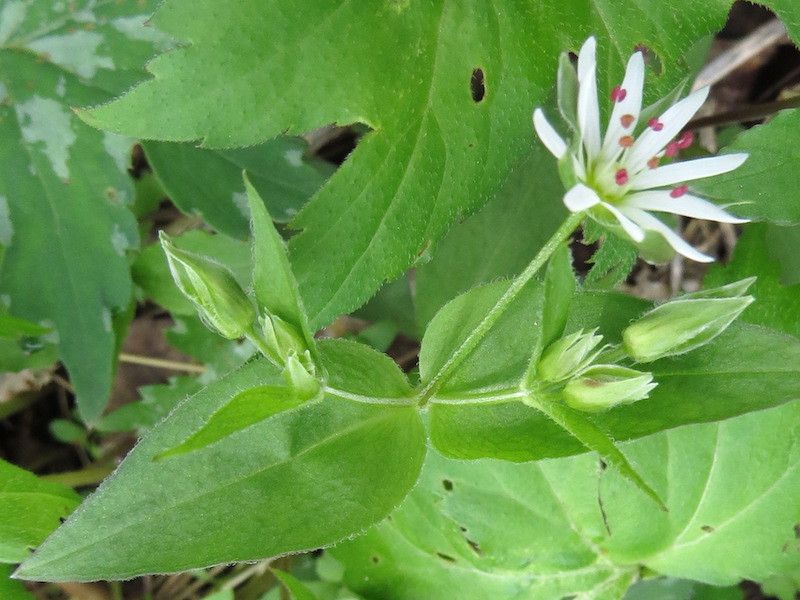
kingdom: Plantae
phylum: Tracheophyta
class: Magnoliopsida
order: Caryophyllales
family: Caryophyllaceae
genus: Stellaria
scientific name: Stellaria corei
